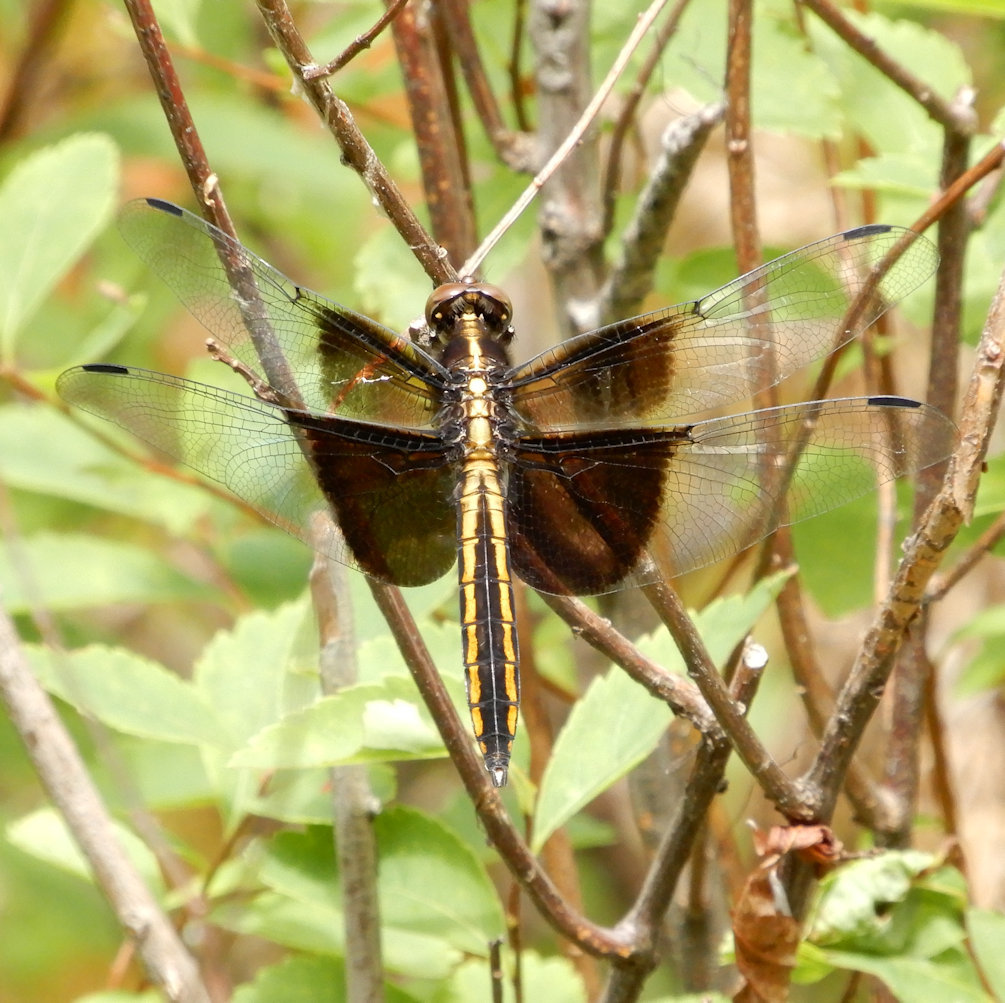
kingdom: Animalia
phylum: Arthropoda
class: Insecta
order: Odonata
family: Libellulidae
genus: Libellula
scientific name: Libellula luctuosa
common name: Widow skimmer
